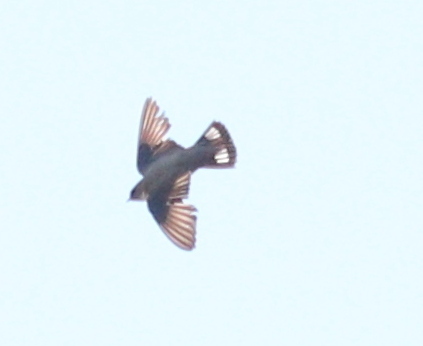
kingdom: Animalia
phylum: Chordata
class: Aves
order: Passeriformes
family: Hirundinidae
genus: Ptyonoprogne
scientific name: Ptyonoprogne rupestris
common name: Eurasian crag martin
